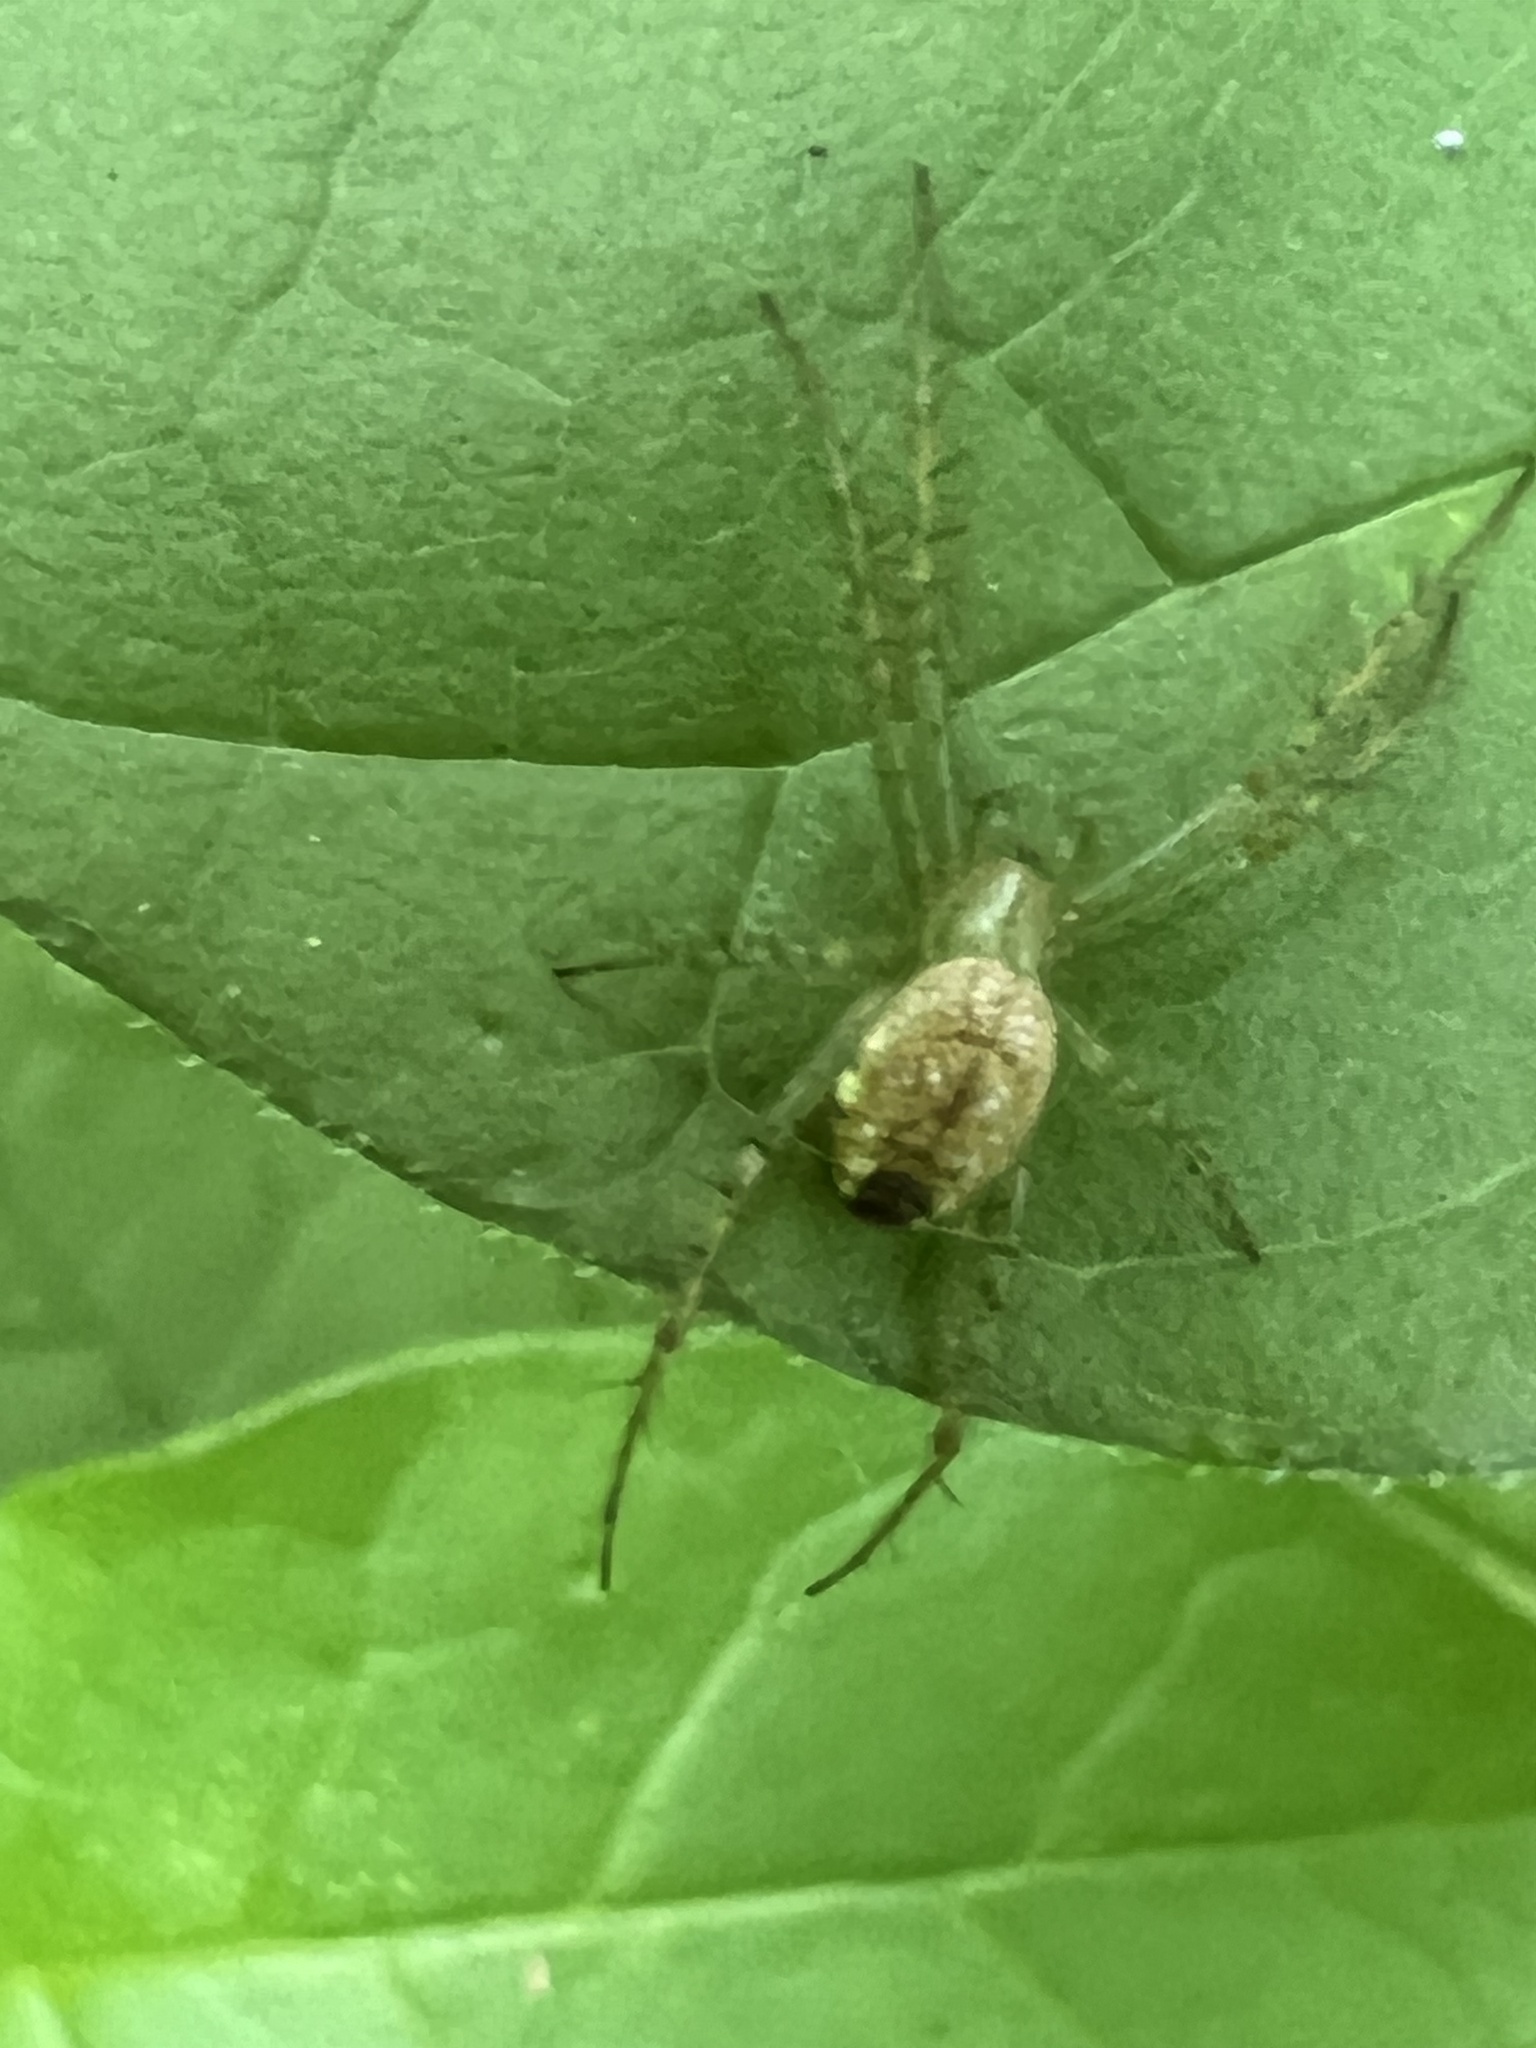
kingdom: Animalia
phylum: Arthropoda
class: Arachnida
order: Araneae
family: Araneidae
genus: Mangora
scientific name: Mangora maculata
